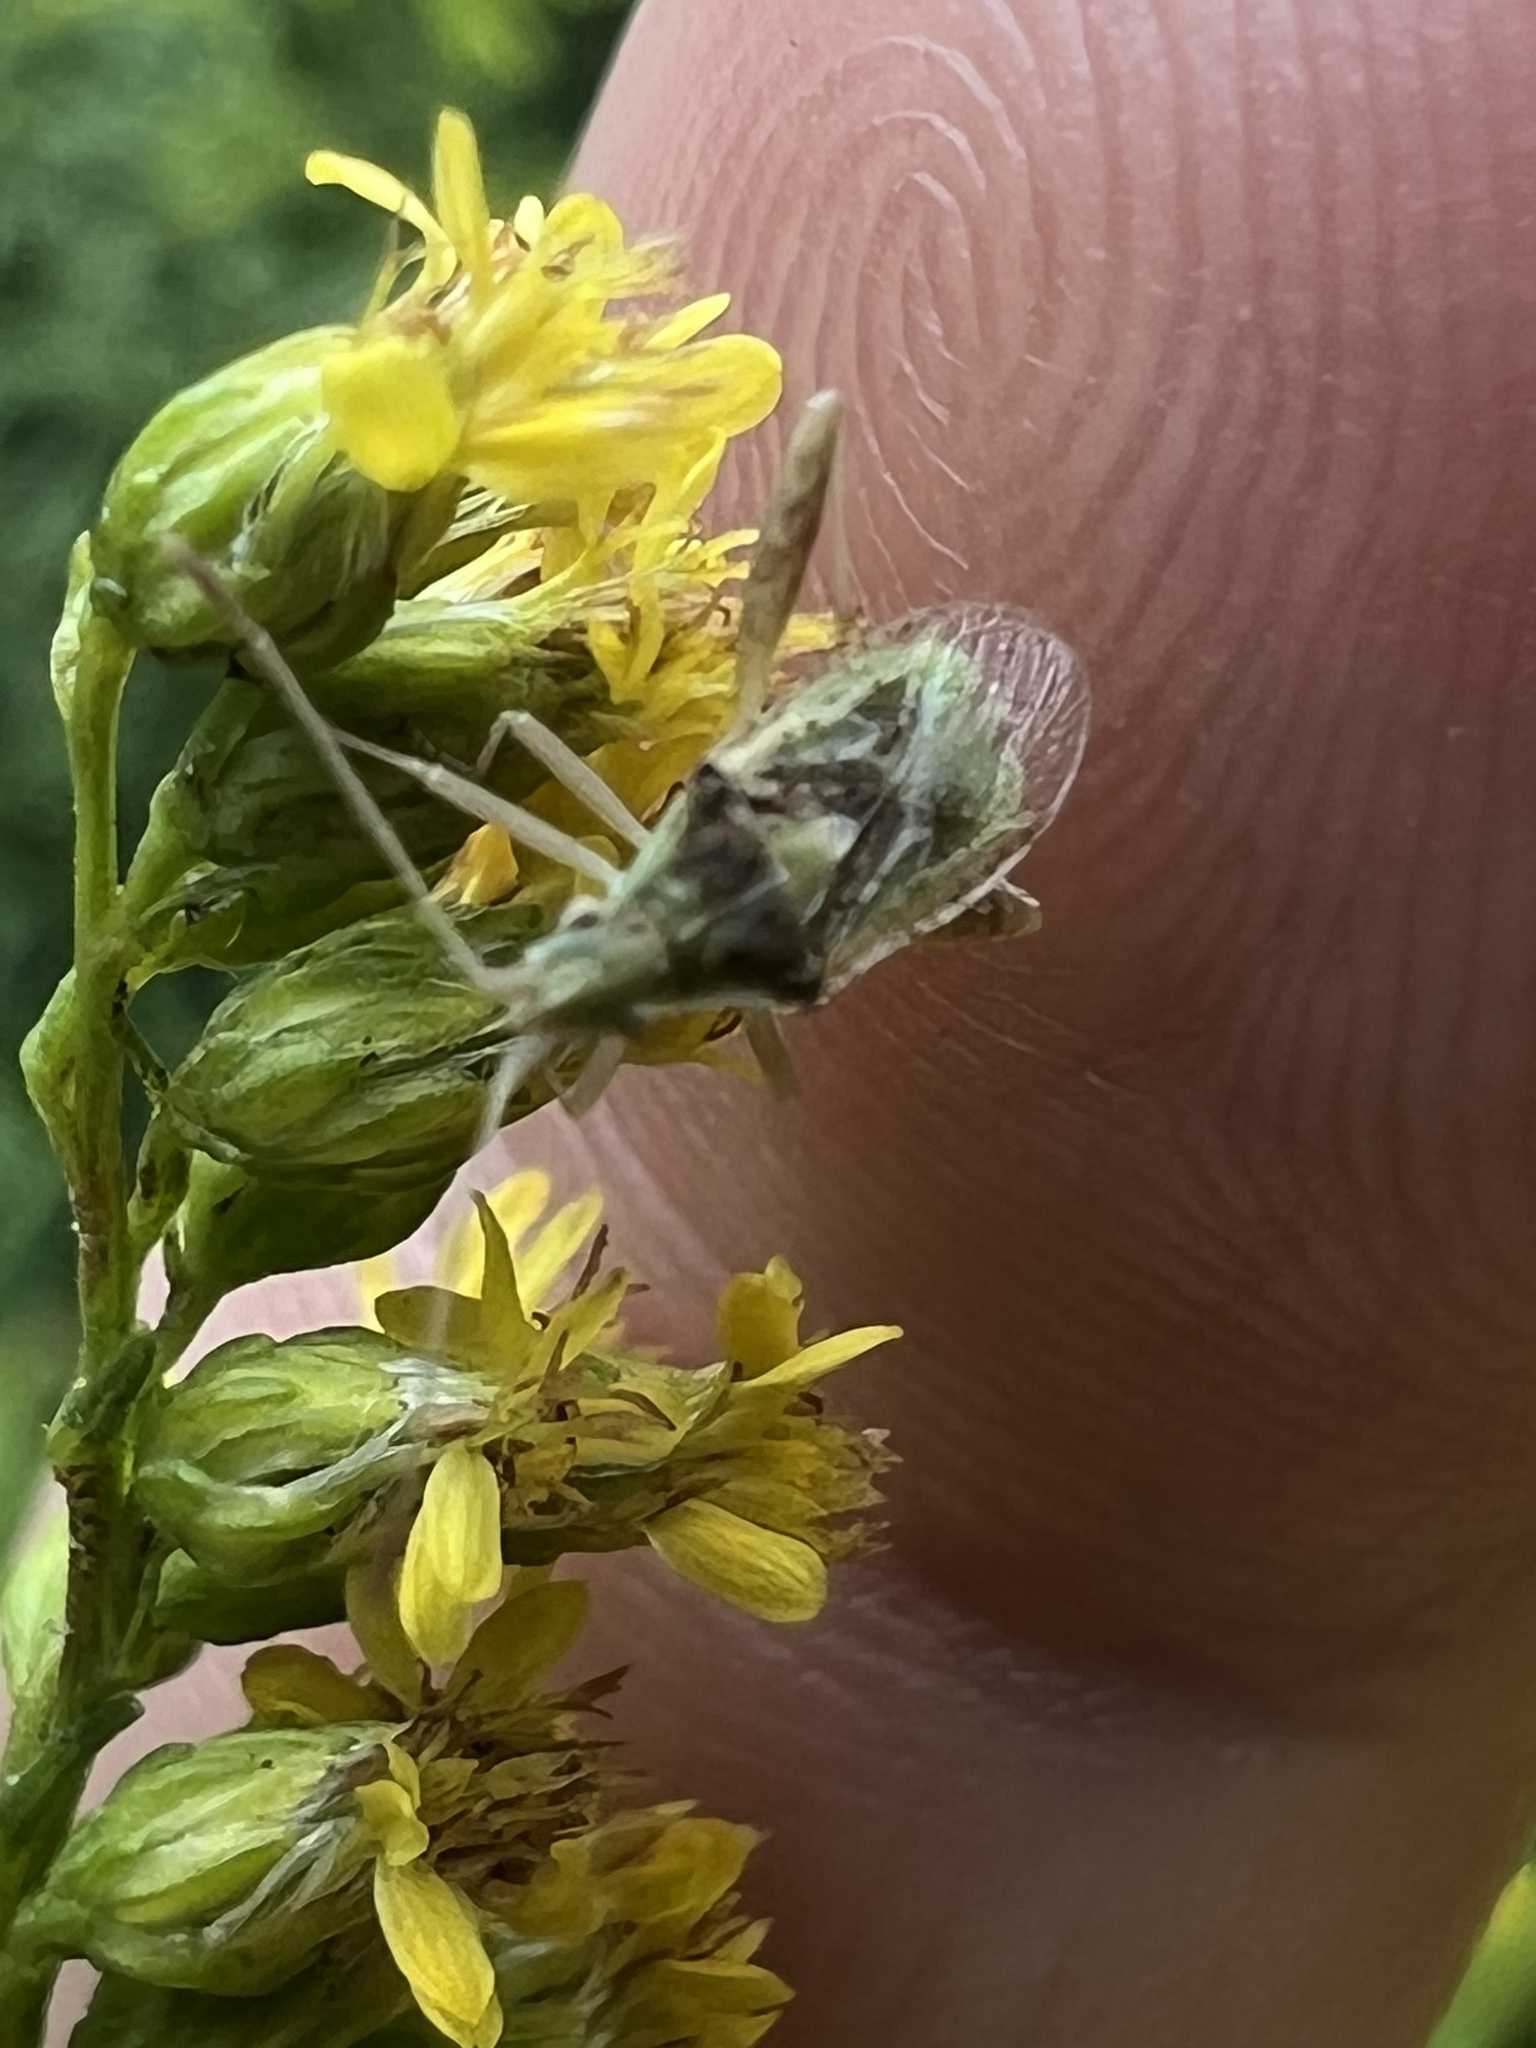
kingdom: Animalia
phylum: Arthropoda
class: Insecta
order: Hemiptera
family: Rhopalidae
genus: Harmostes
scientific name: Harmostes reflexulus
